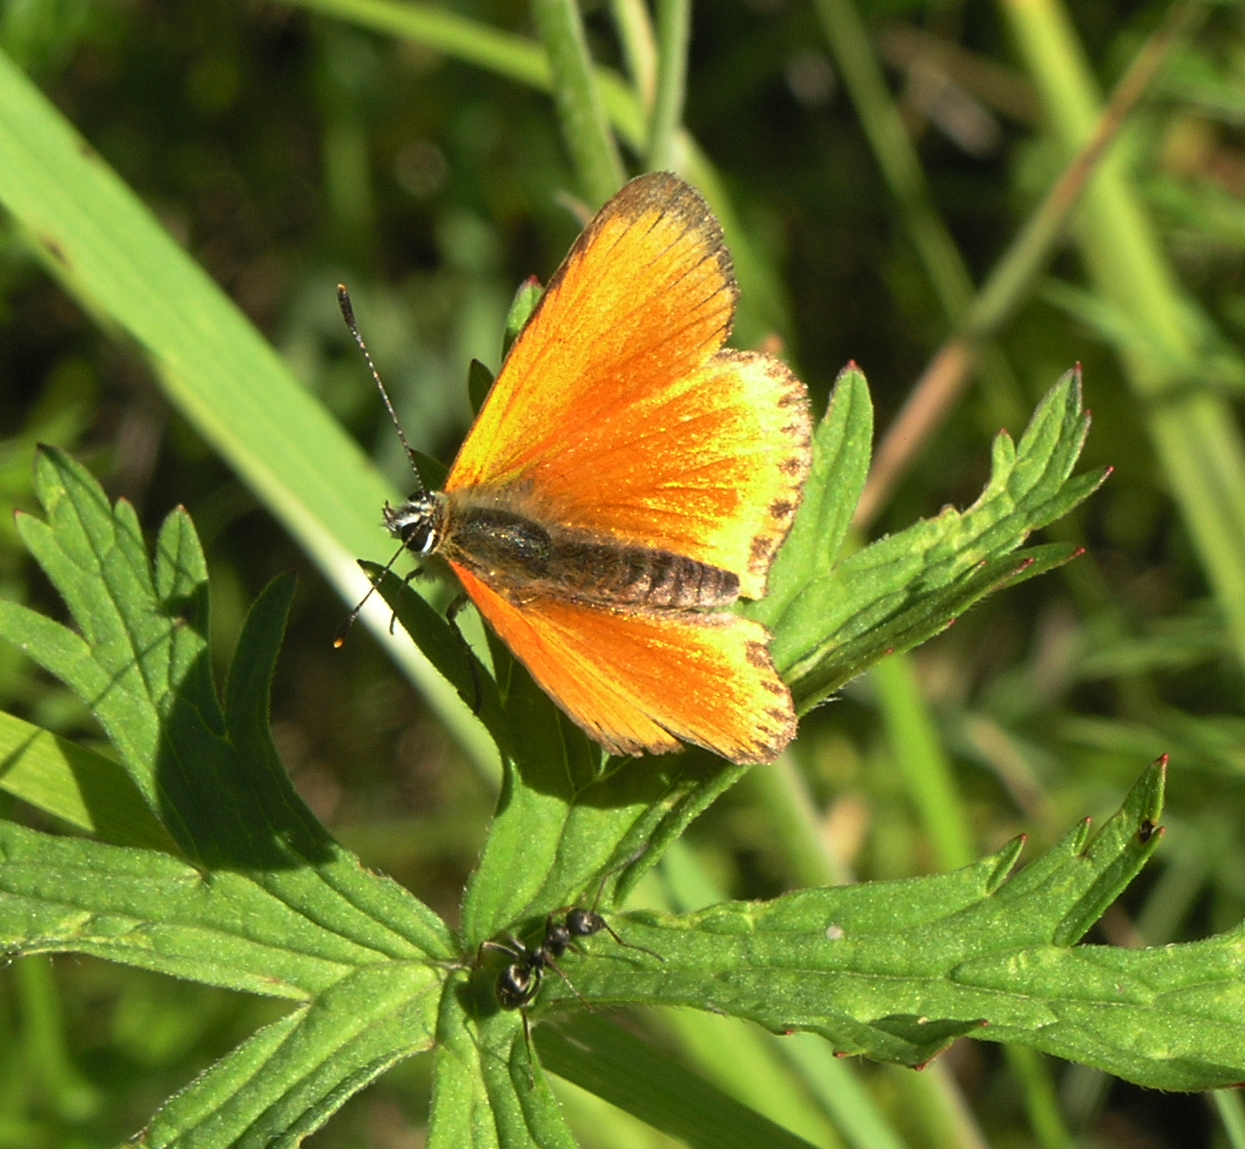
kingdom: Animalia
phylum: Arthropoda
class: Insecta
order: Lepidoptera
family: Lycaenidae
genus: Lycaena
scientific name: Lycaena virgaureae
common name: Scarce copper
